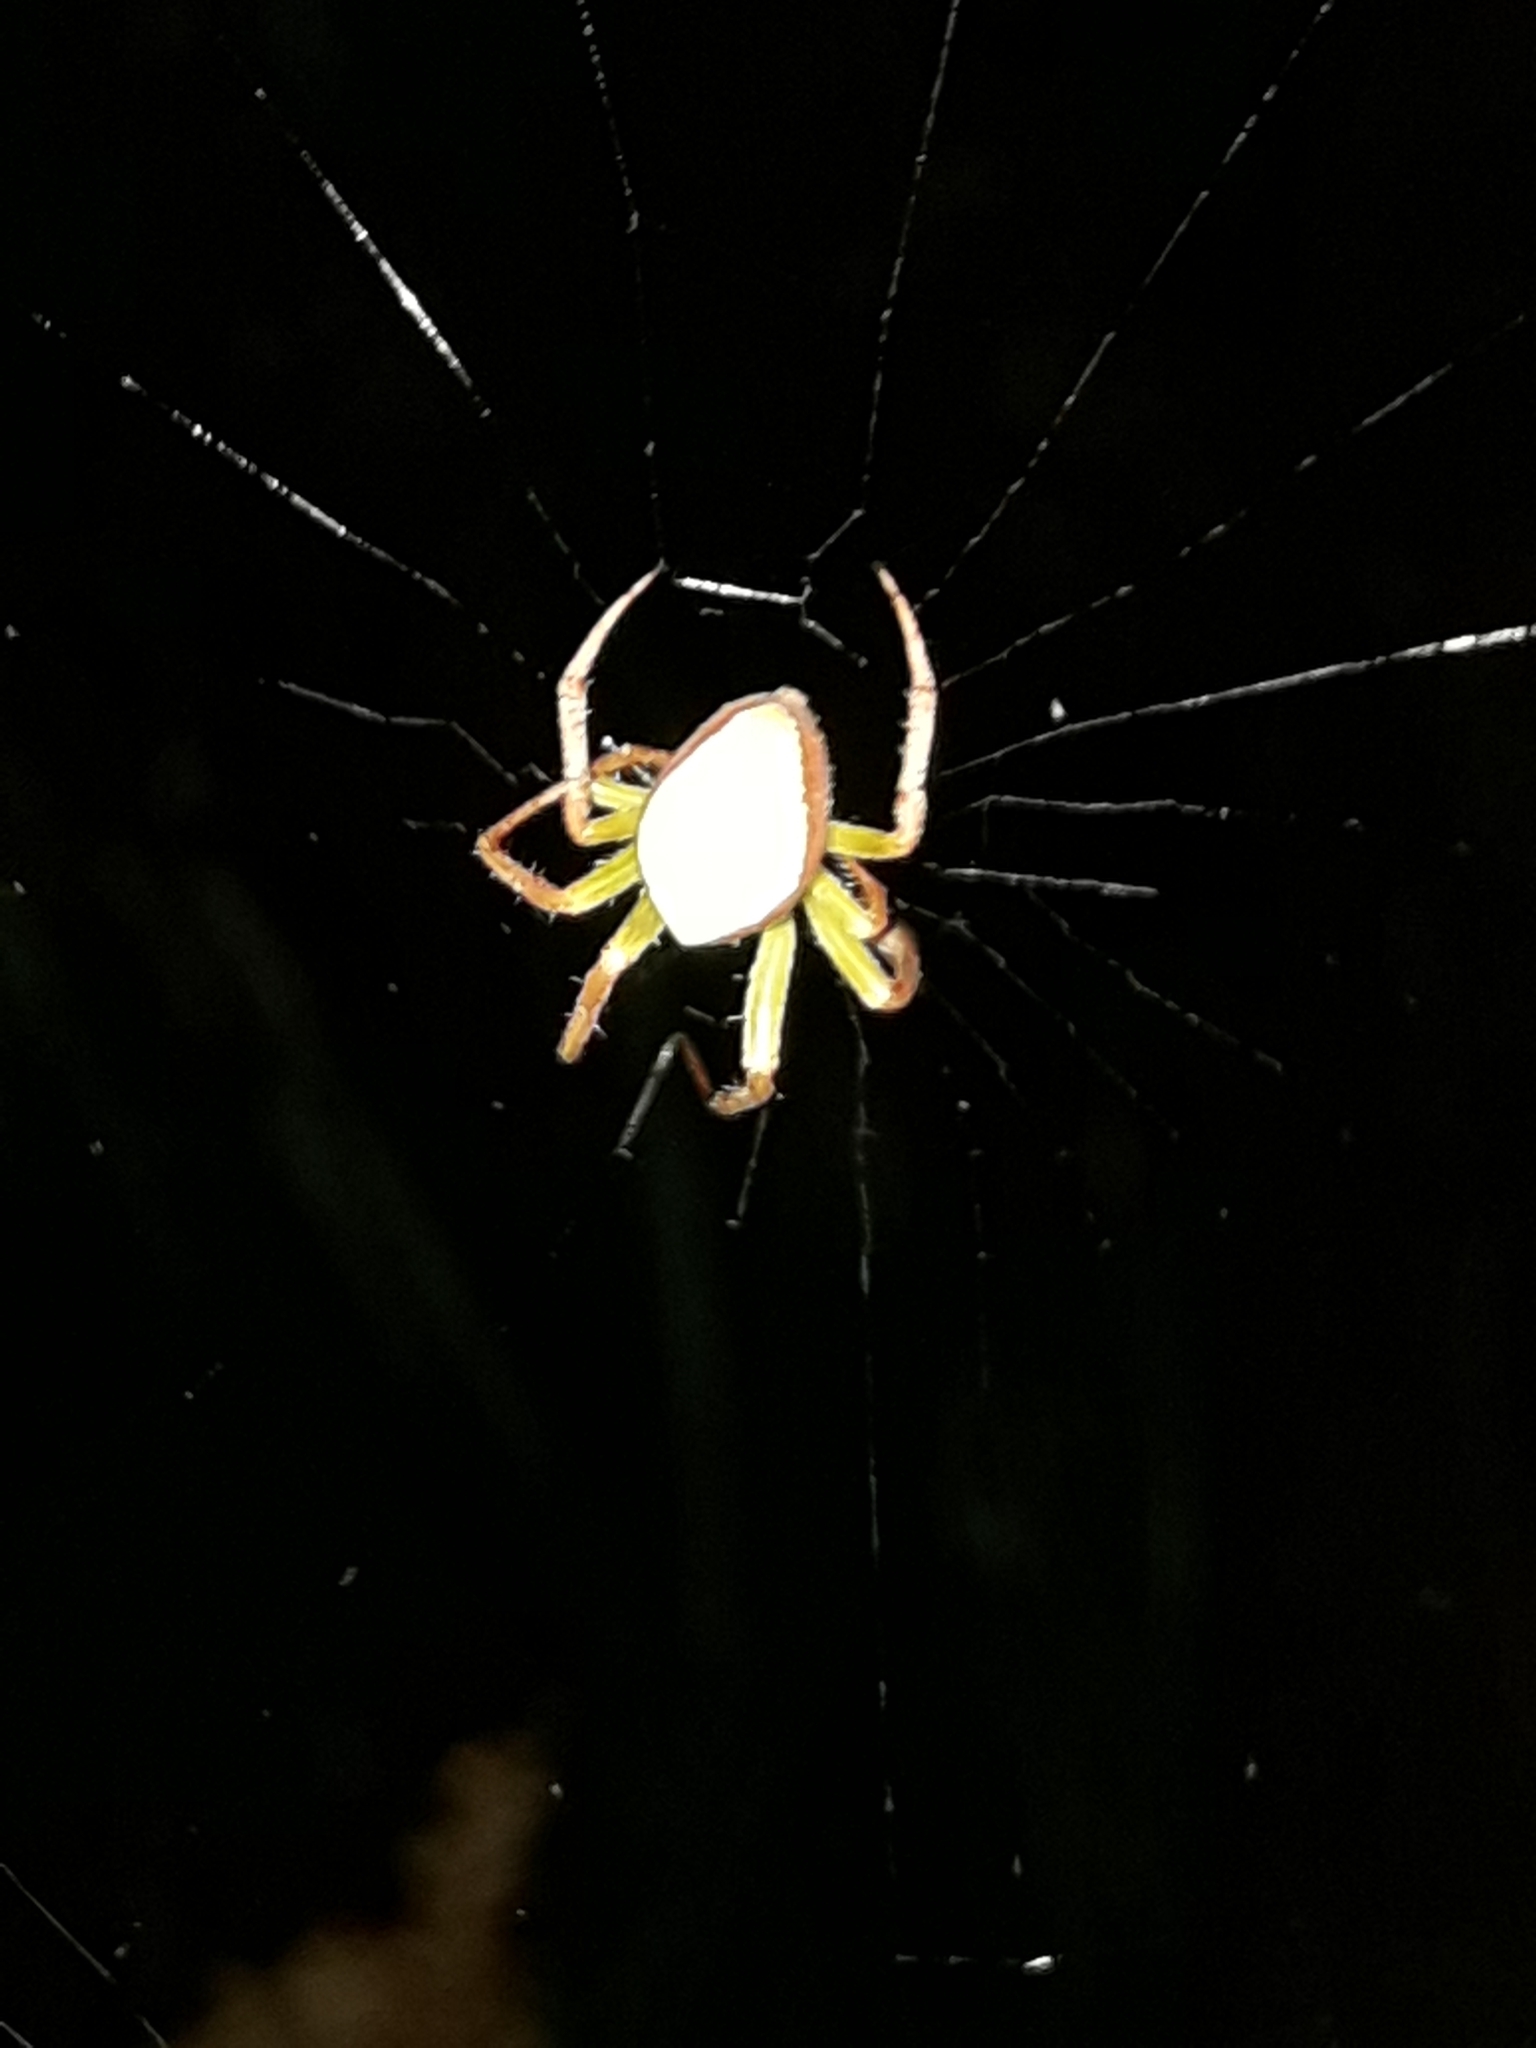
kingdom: Animalia
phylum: Arthropoda
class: Arachnida
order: Araneae
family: Araneidae
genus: Colaranea
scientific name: Colaranea viriditas
